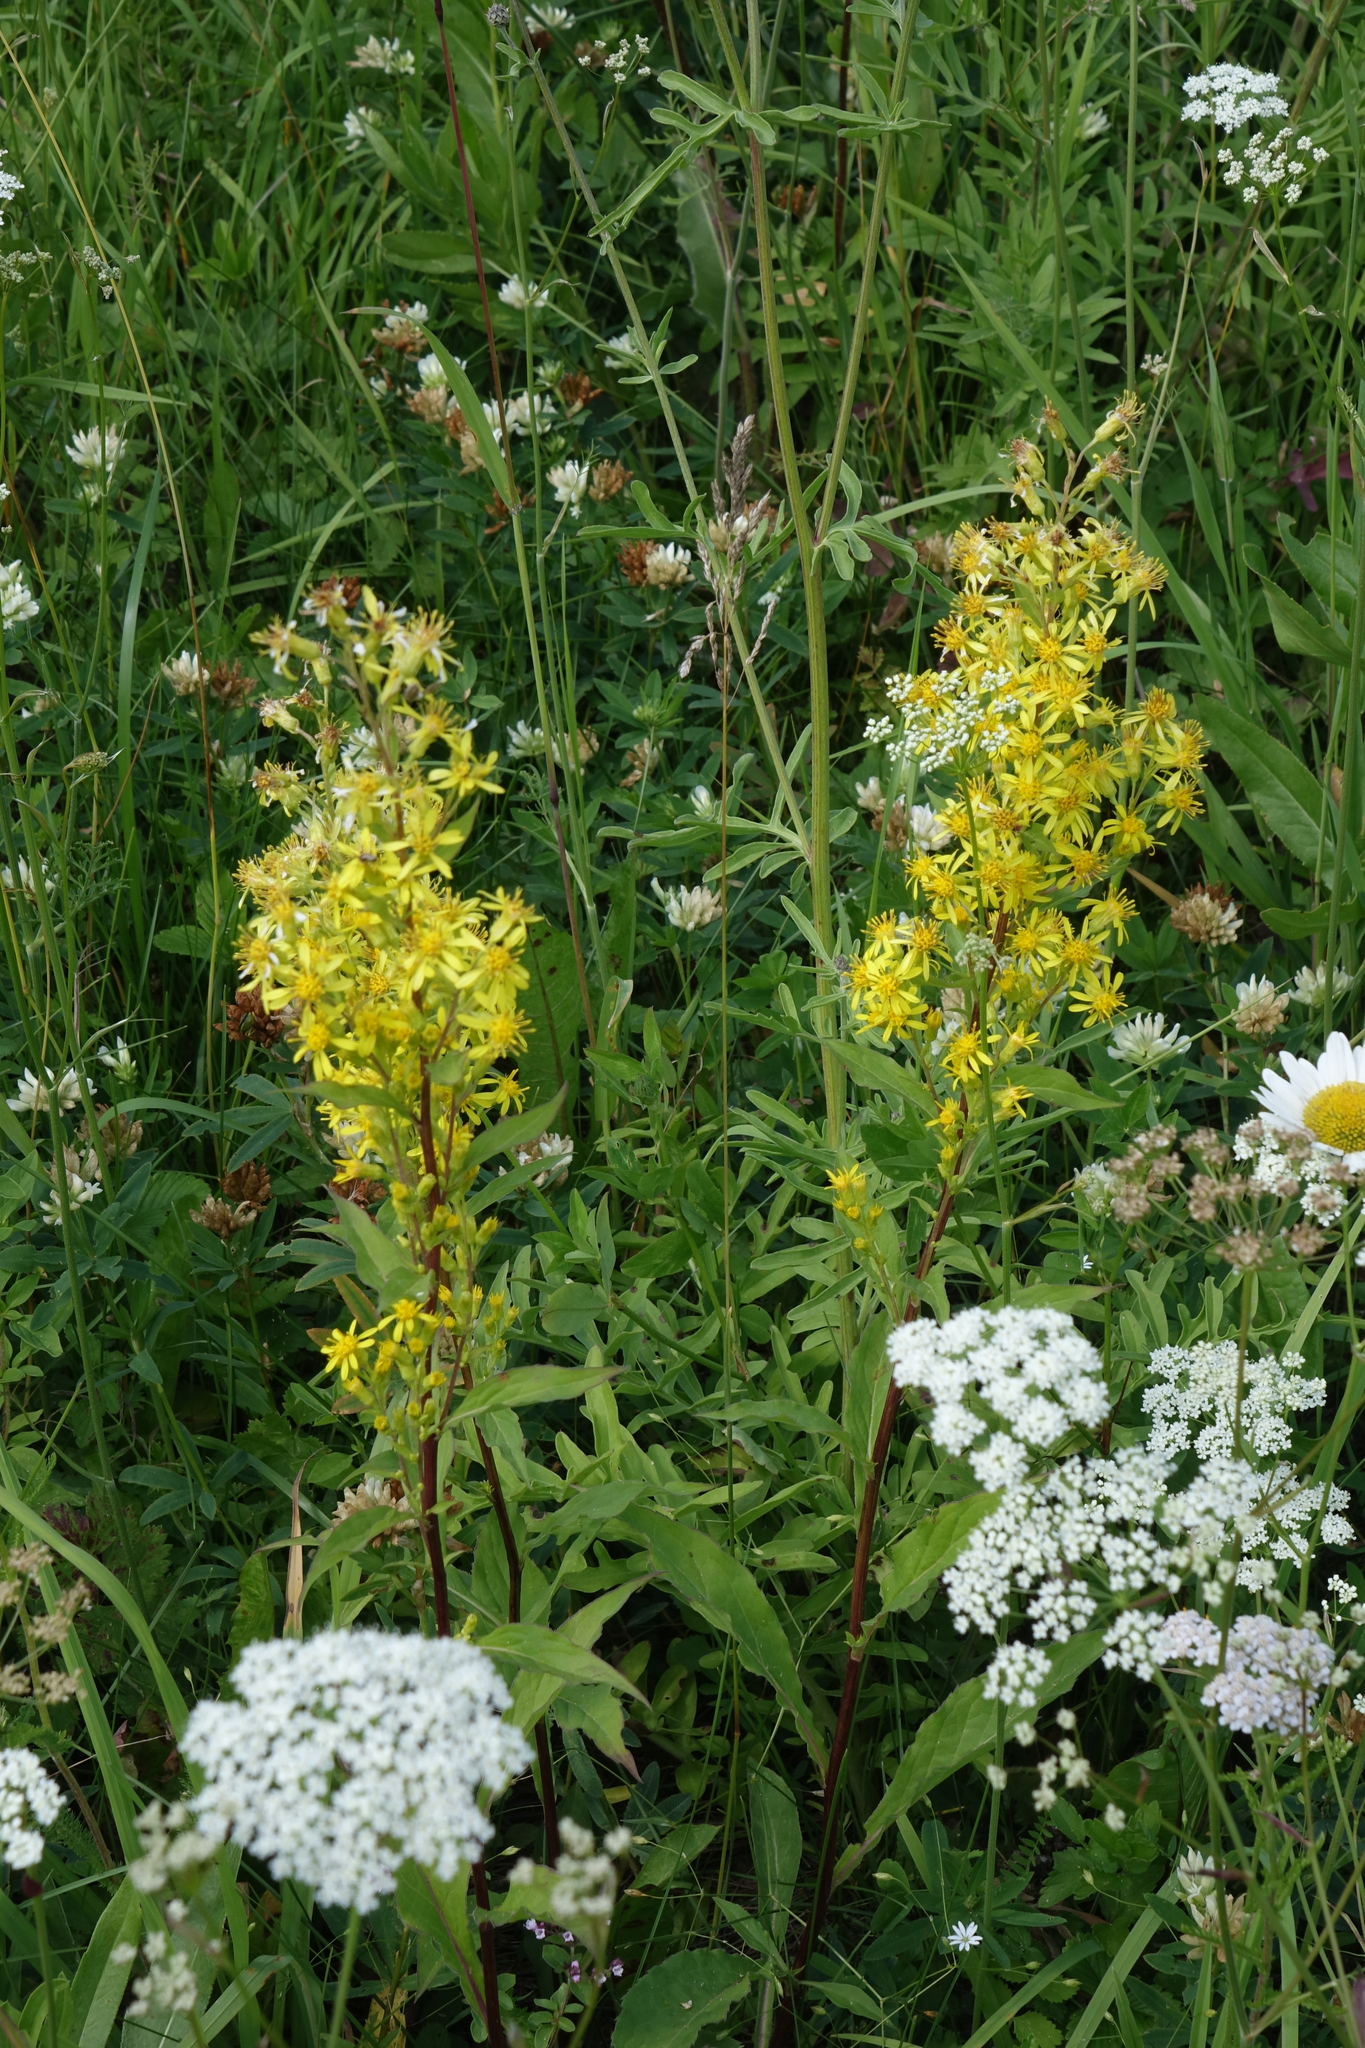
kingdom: Plantae
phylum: Tracheophyta
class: Magnoliopsida
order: Asterales
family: Asteraceae
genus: Solidago
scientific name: Solidago virgaurea
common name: Goldenrod
